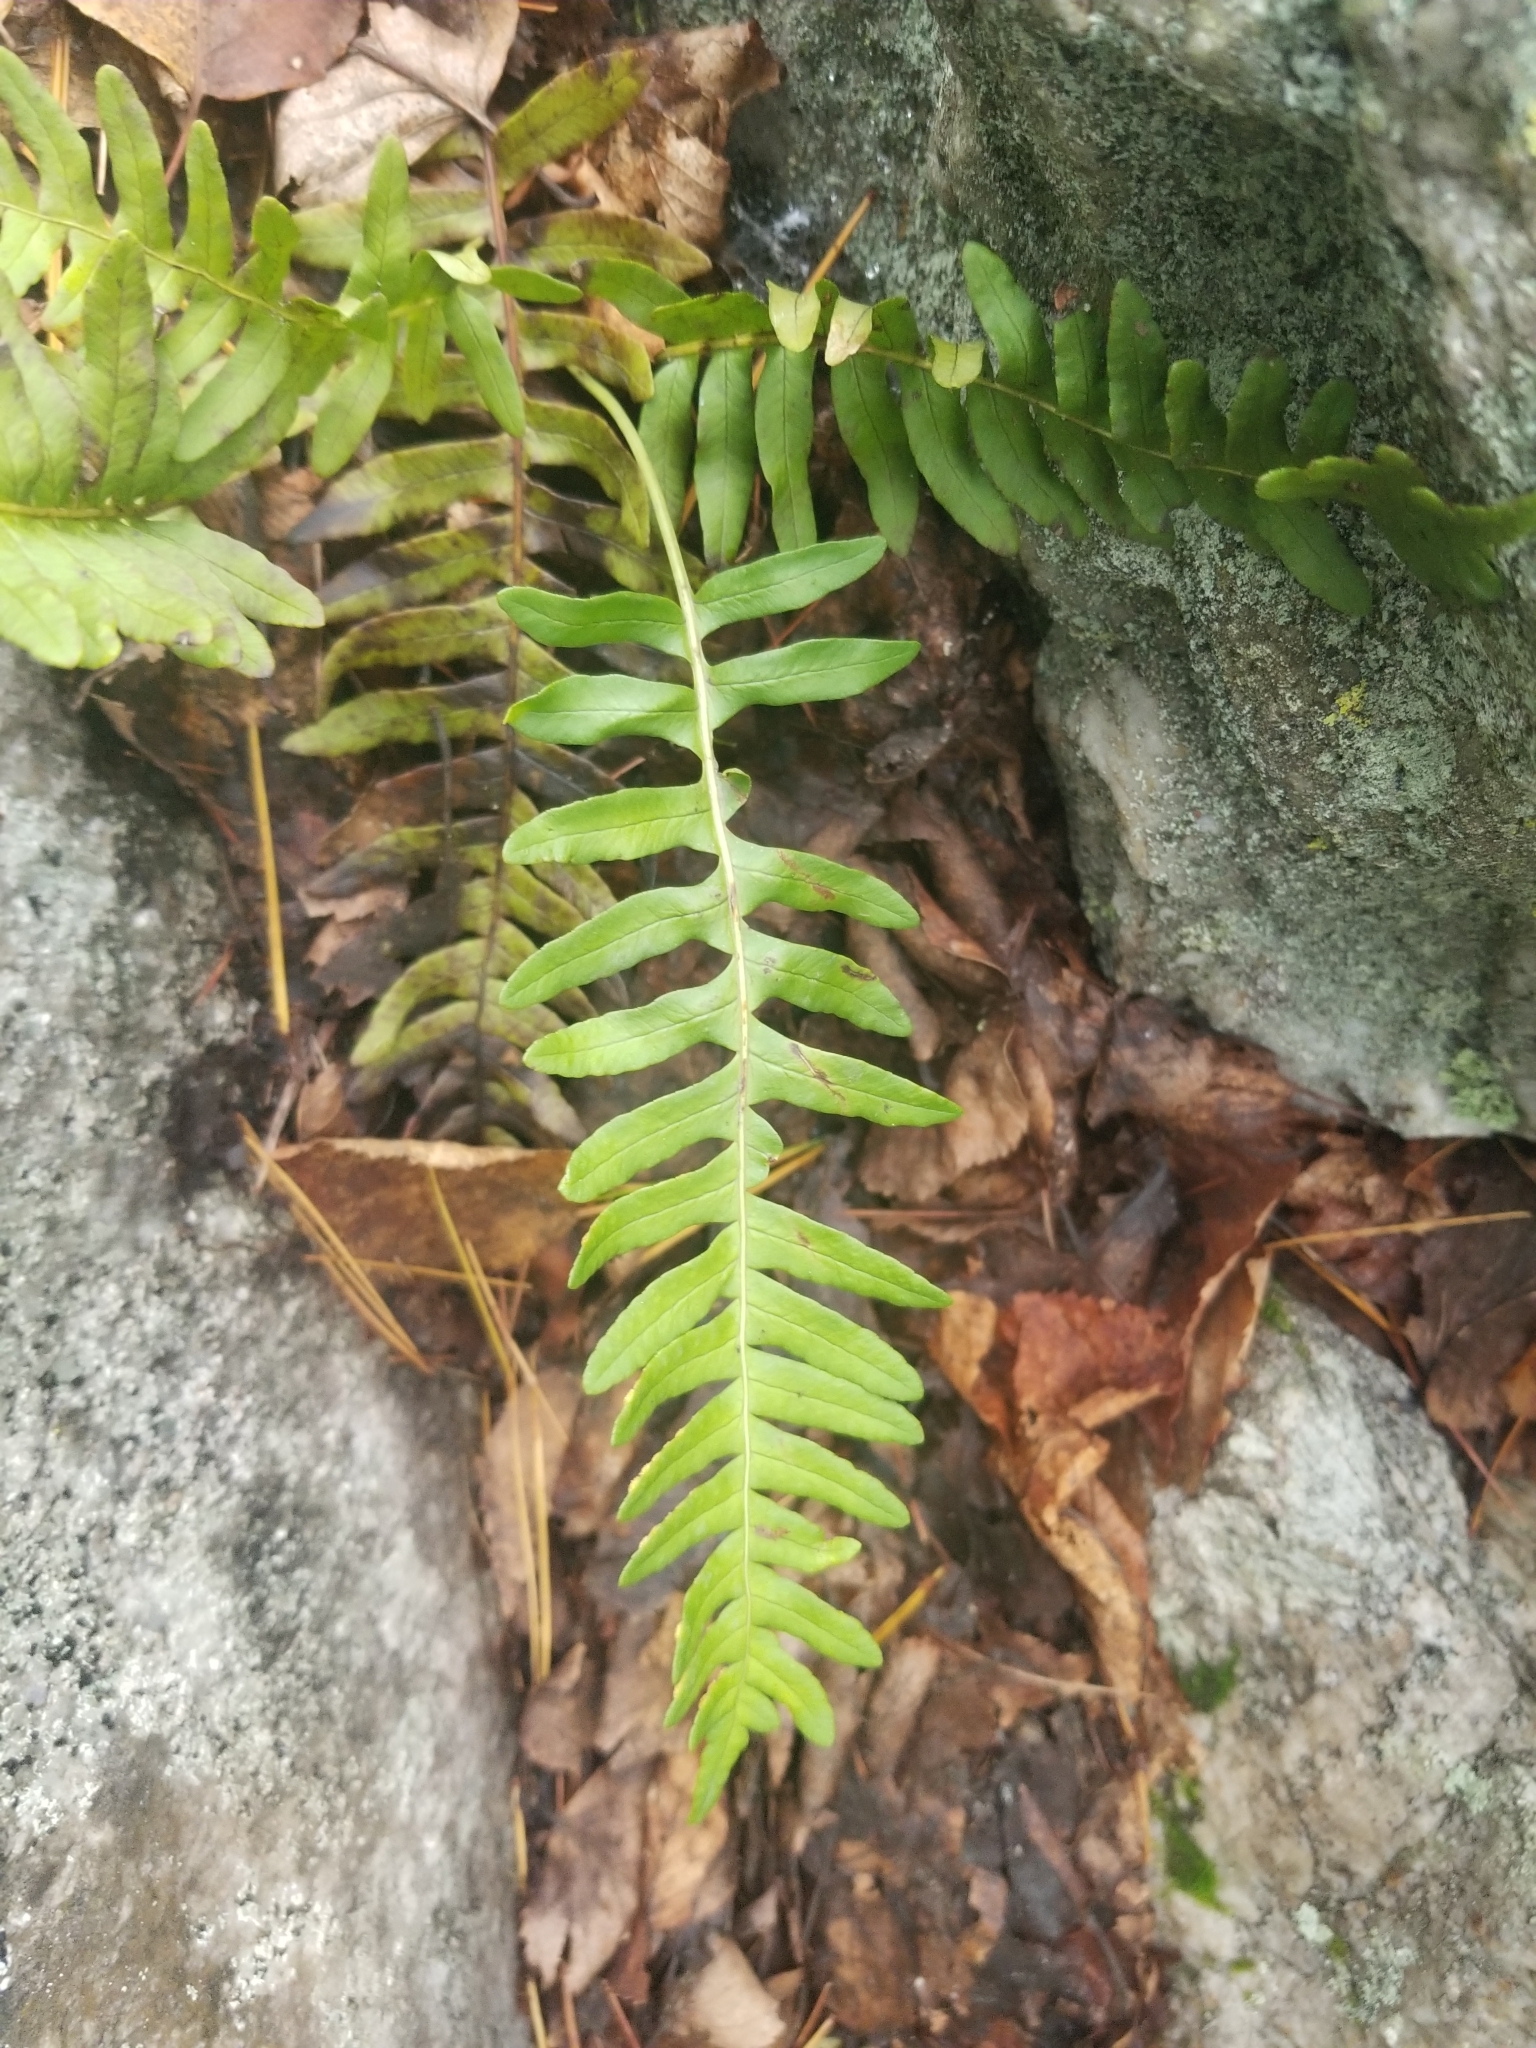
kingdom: Plantae
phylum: Tracheophyta
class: Polypodiopsida
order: Polypodiales
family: Polypodiaceae
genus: Polypodium
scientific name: Polypodium virginianum
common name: American wall fern
